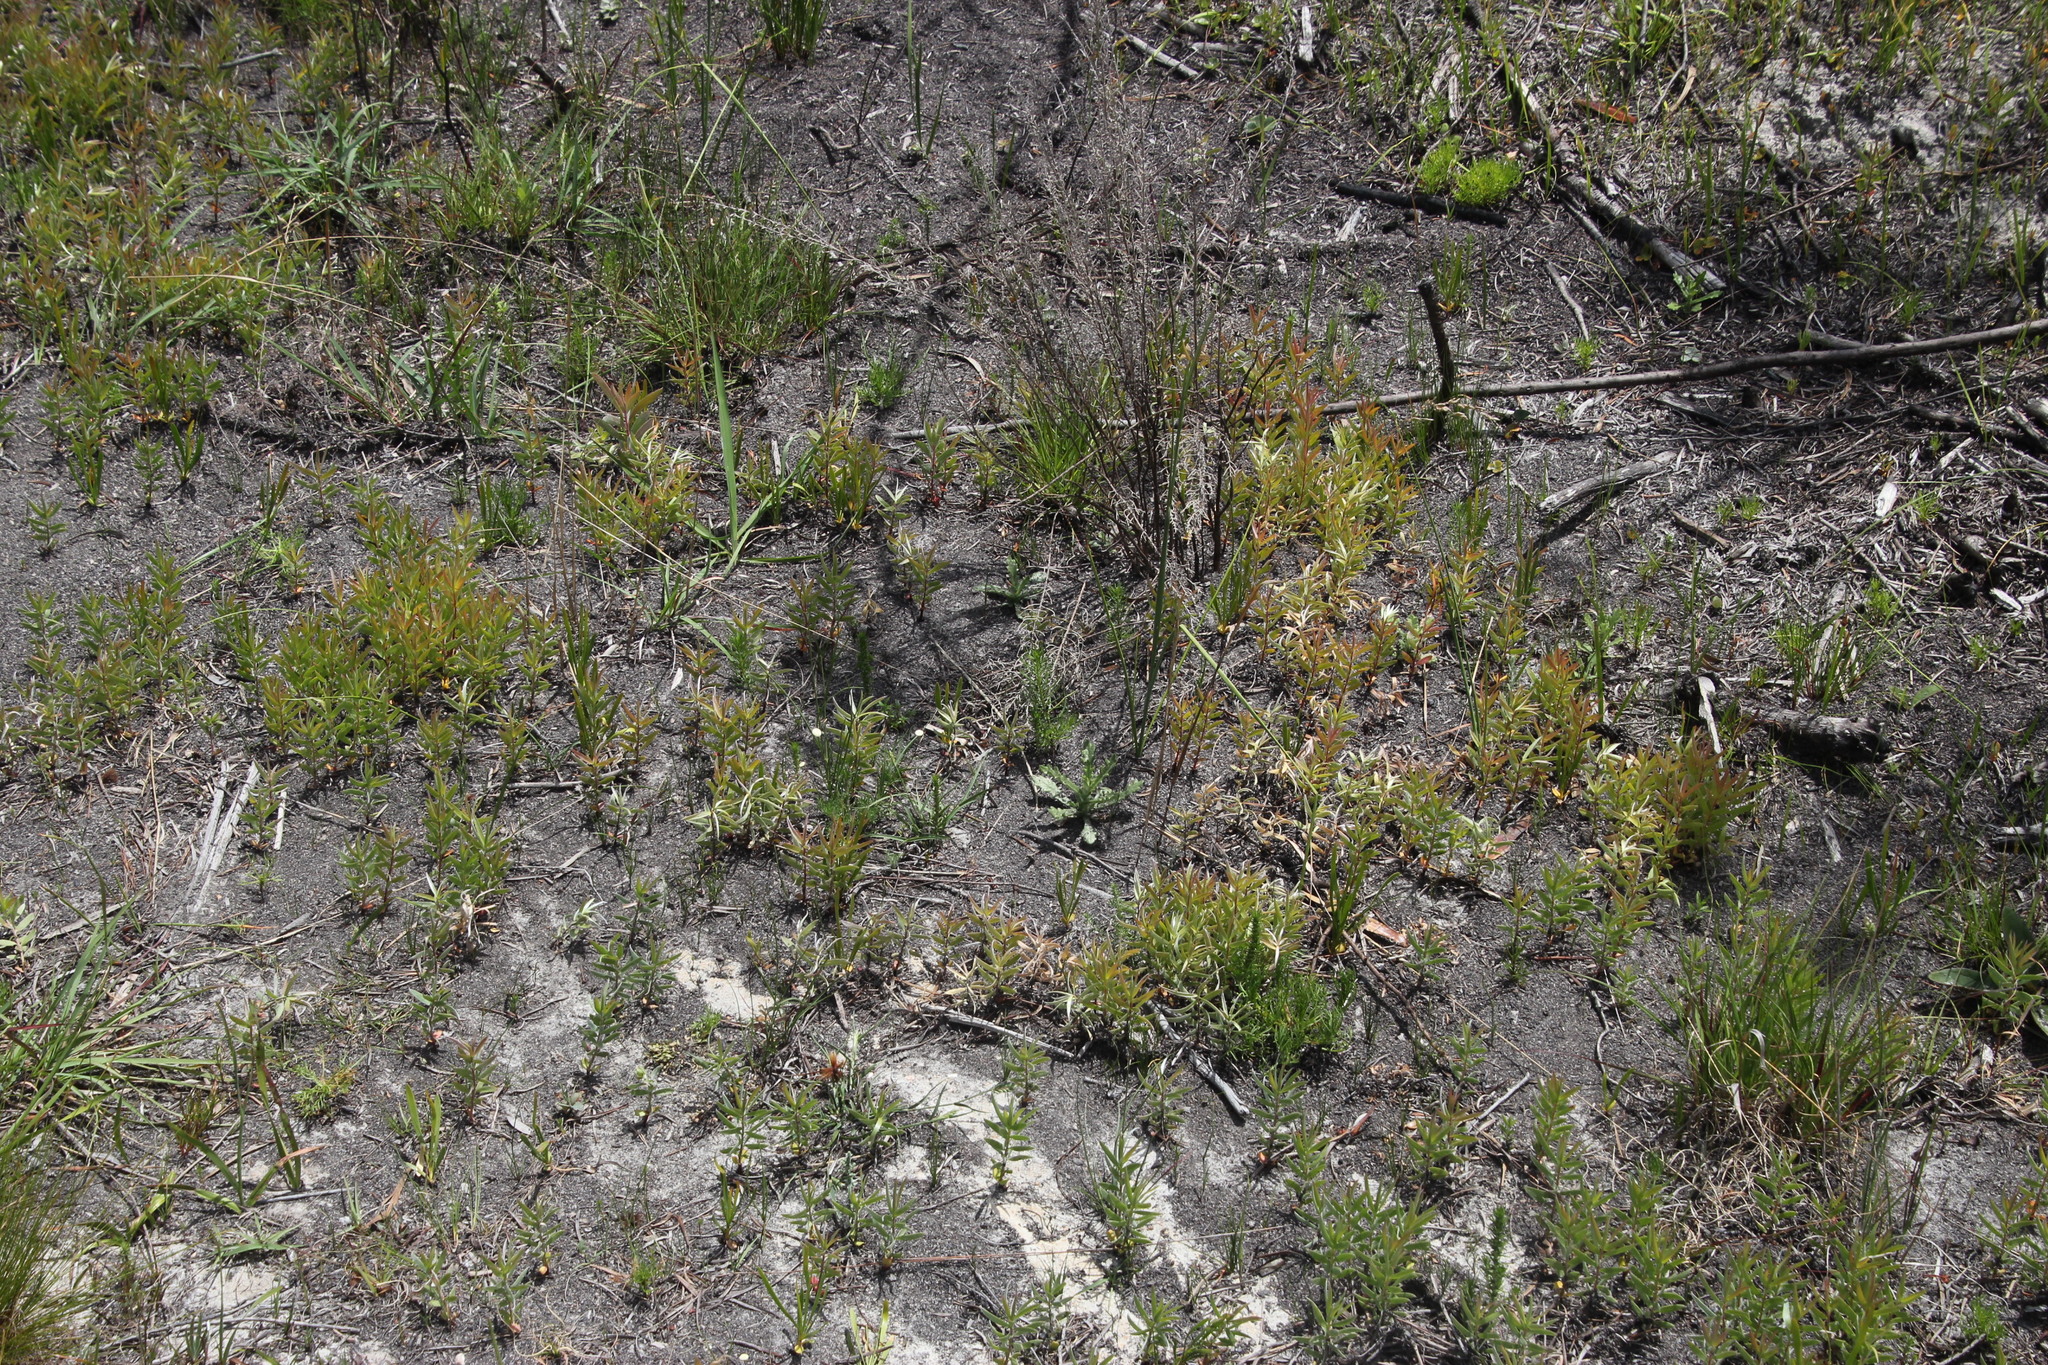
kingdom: Plantae
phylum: Tracheophyta
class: Magnoliopsida
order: Proteales
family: Proteaceae
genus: Leucadendron
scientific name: Leucadendron xanthoconus
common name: Sickle-leaf conebush
